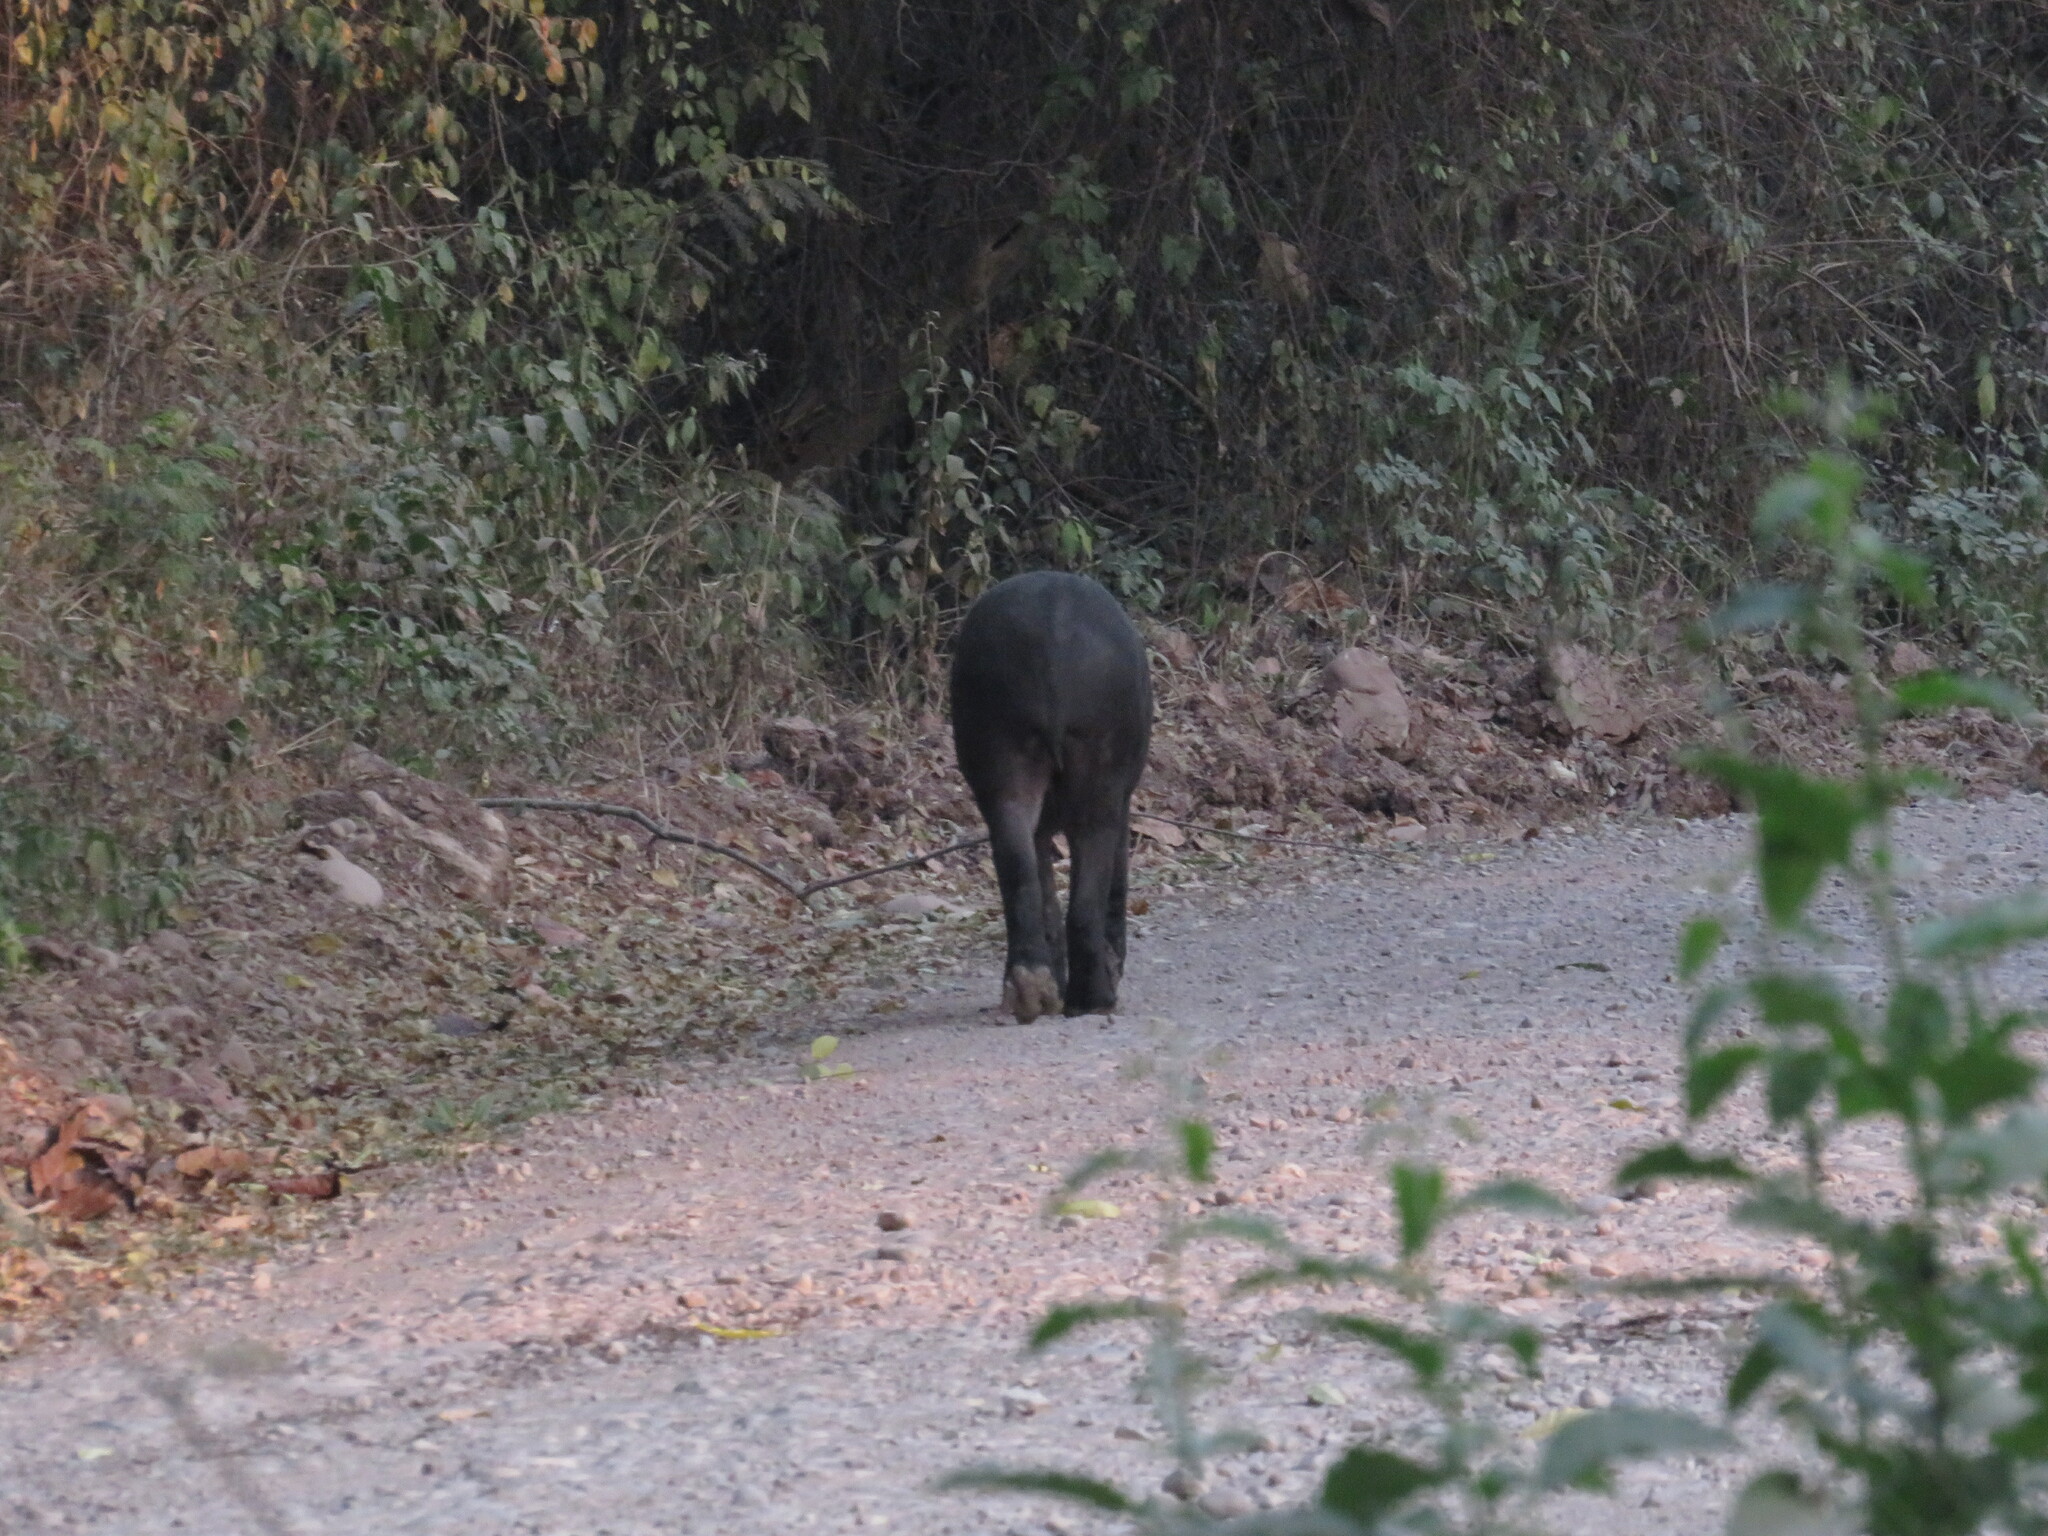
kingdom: Animalia
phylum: Chordata
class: Mammalia
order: Perissodactyla
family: Tapiridae
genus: Tapirus
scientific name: Tapirus terrestris
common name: Brazilian tapir
